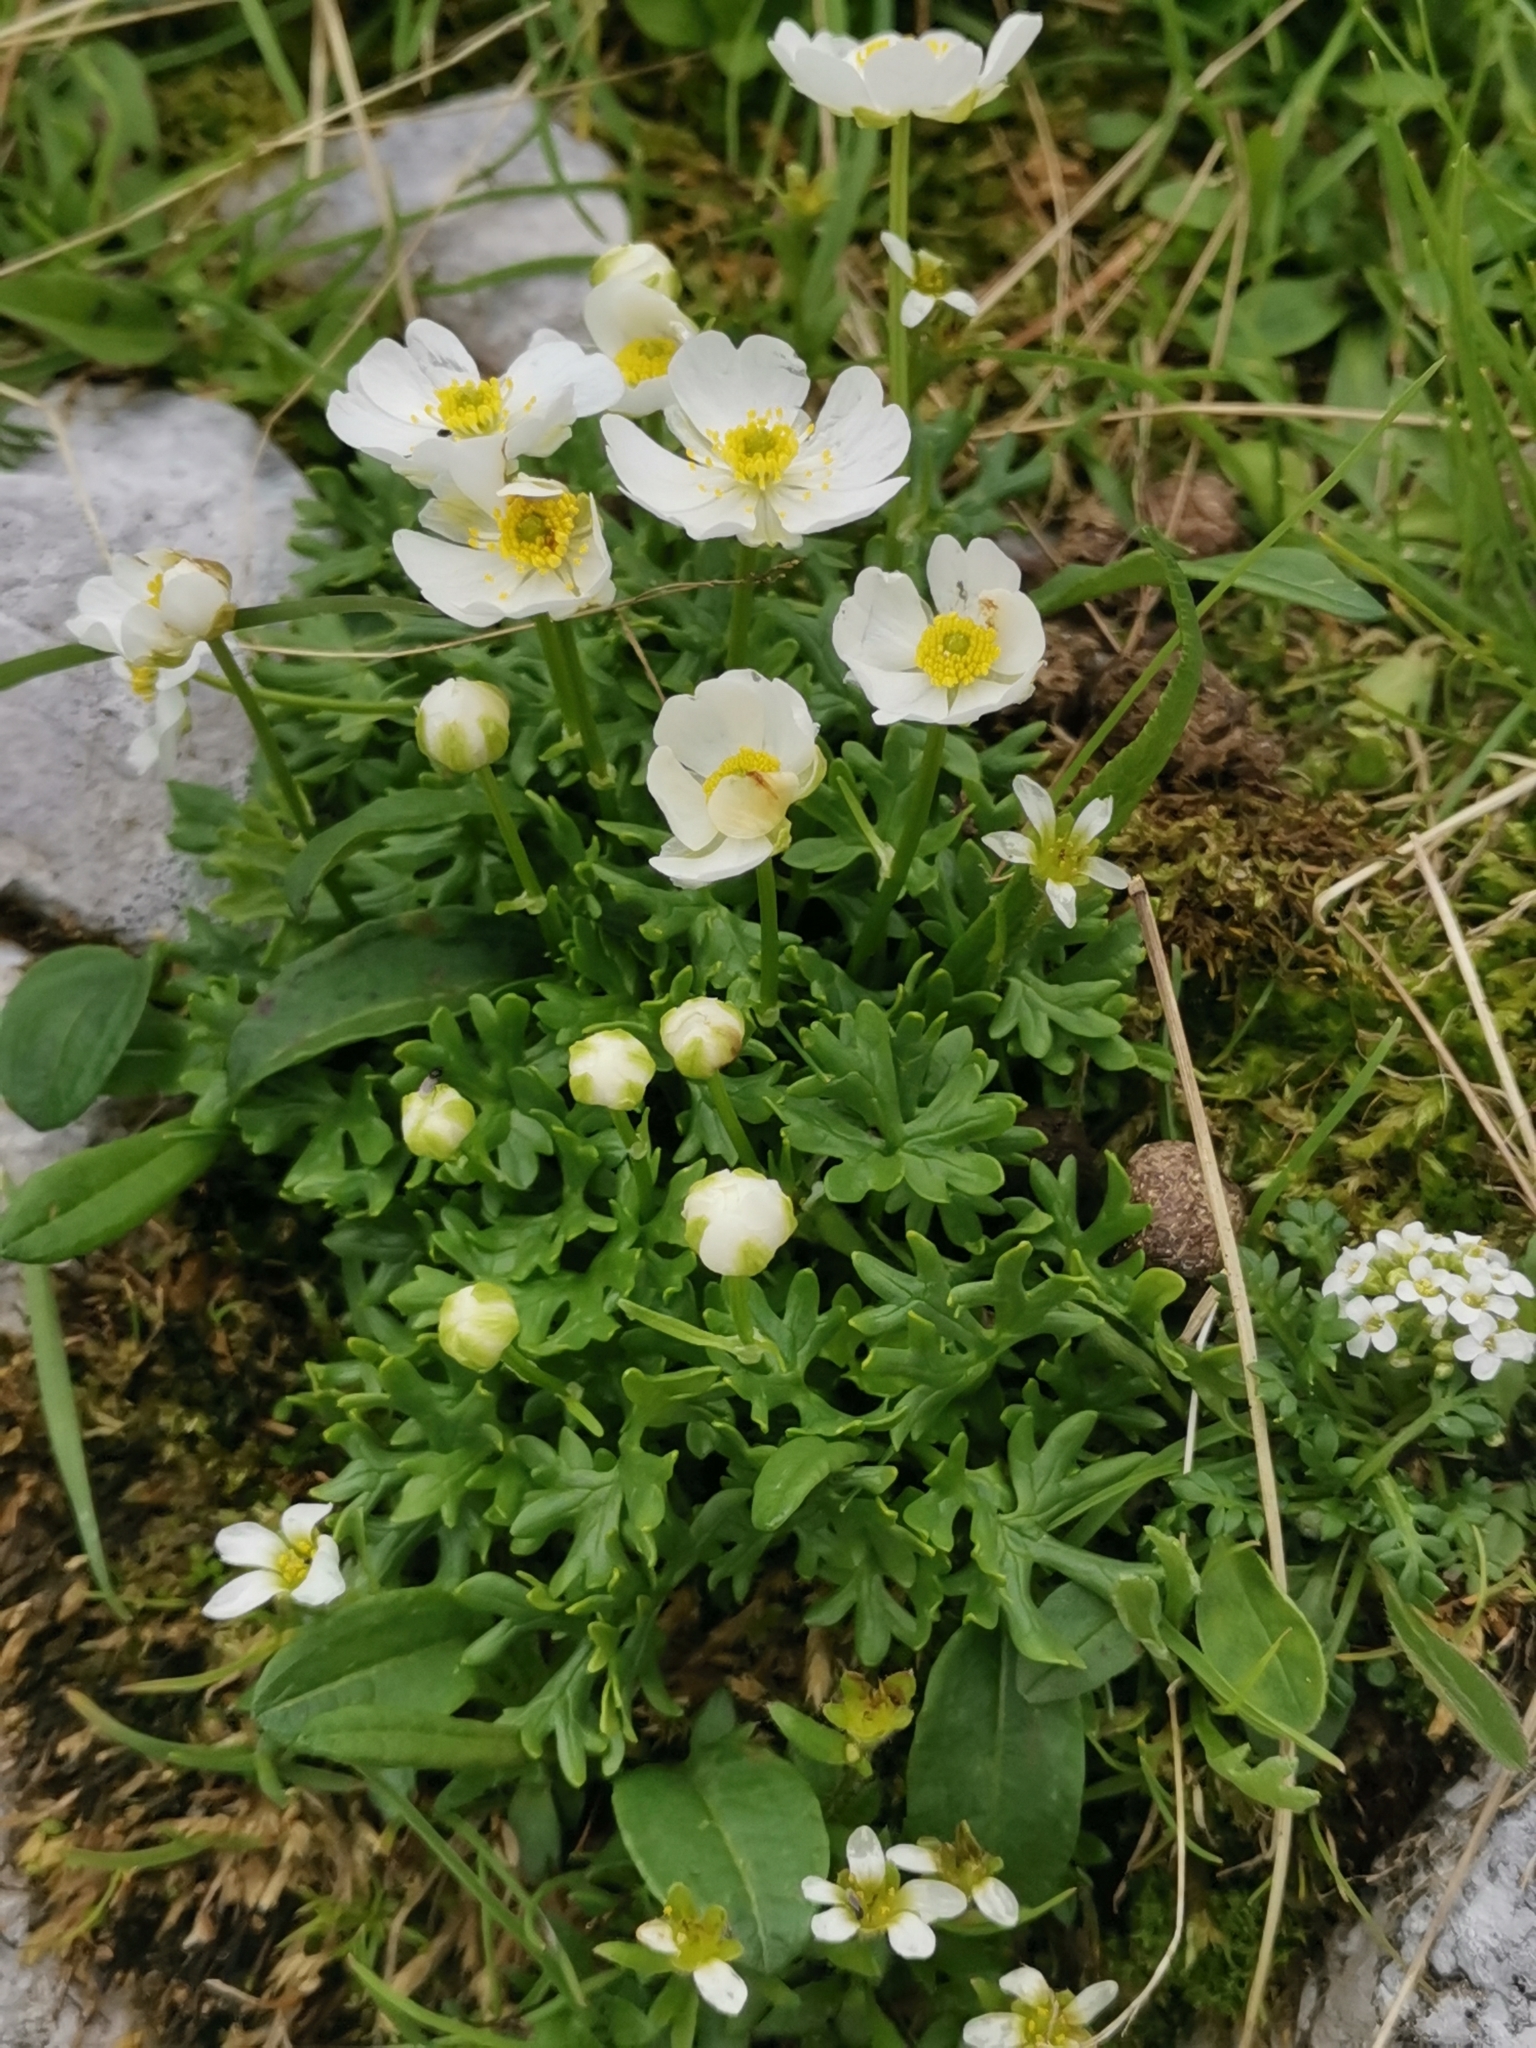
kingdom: Plantae
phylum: Tracheophyta
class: Magnoliopsida
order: Ranunculales
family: Ranunculaceae
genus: Ranunculus
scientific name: Ranunculus traunfellneri
